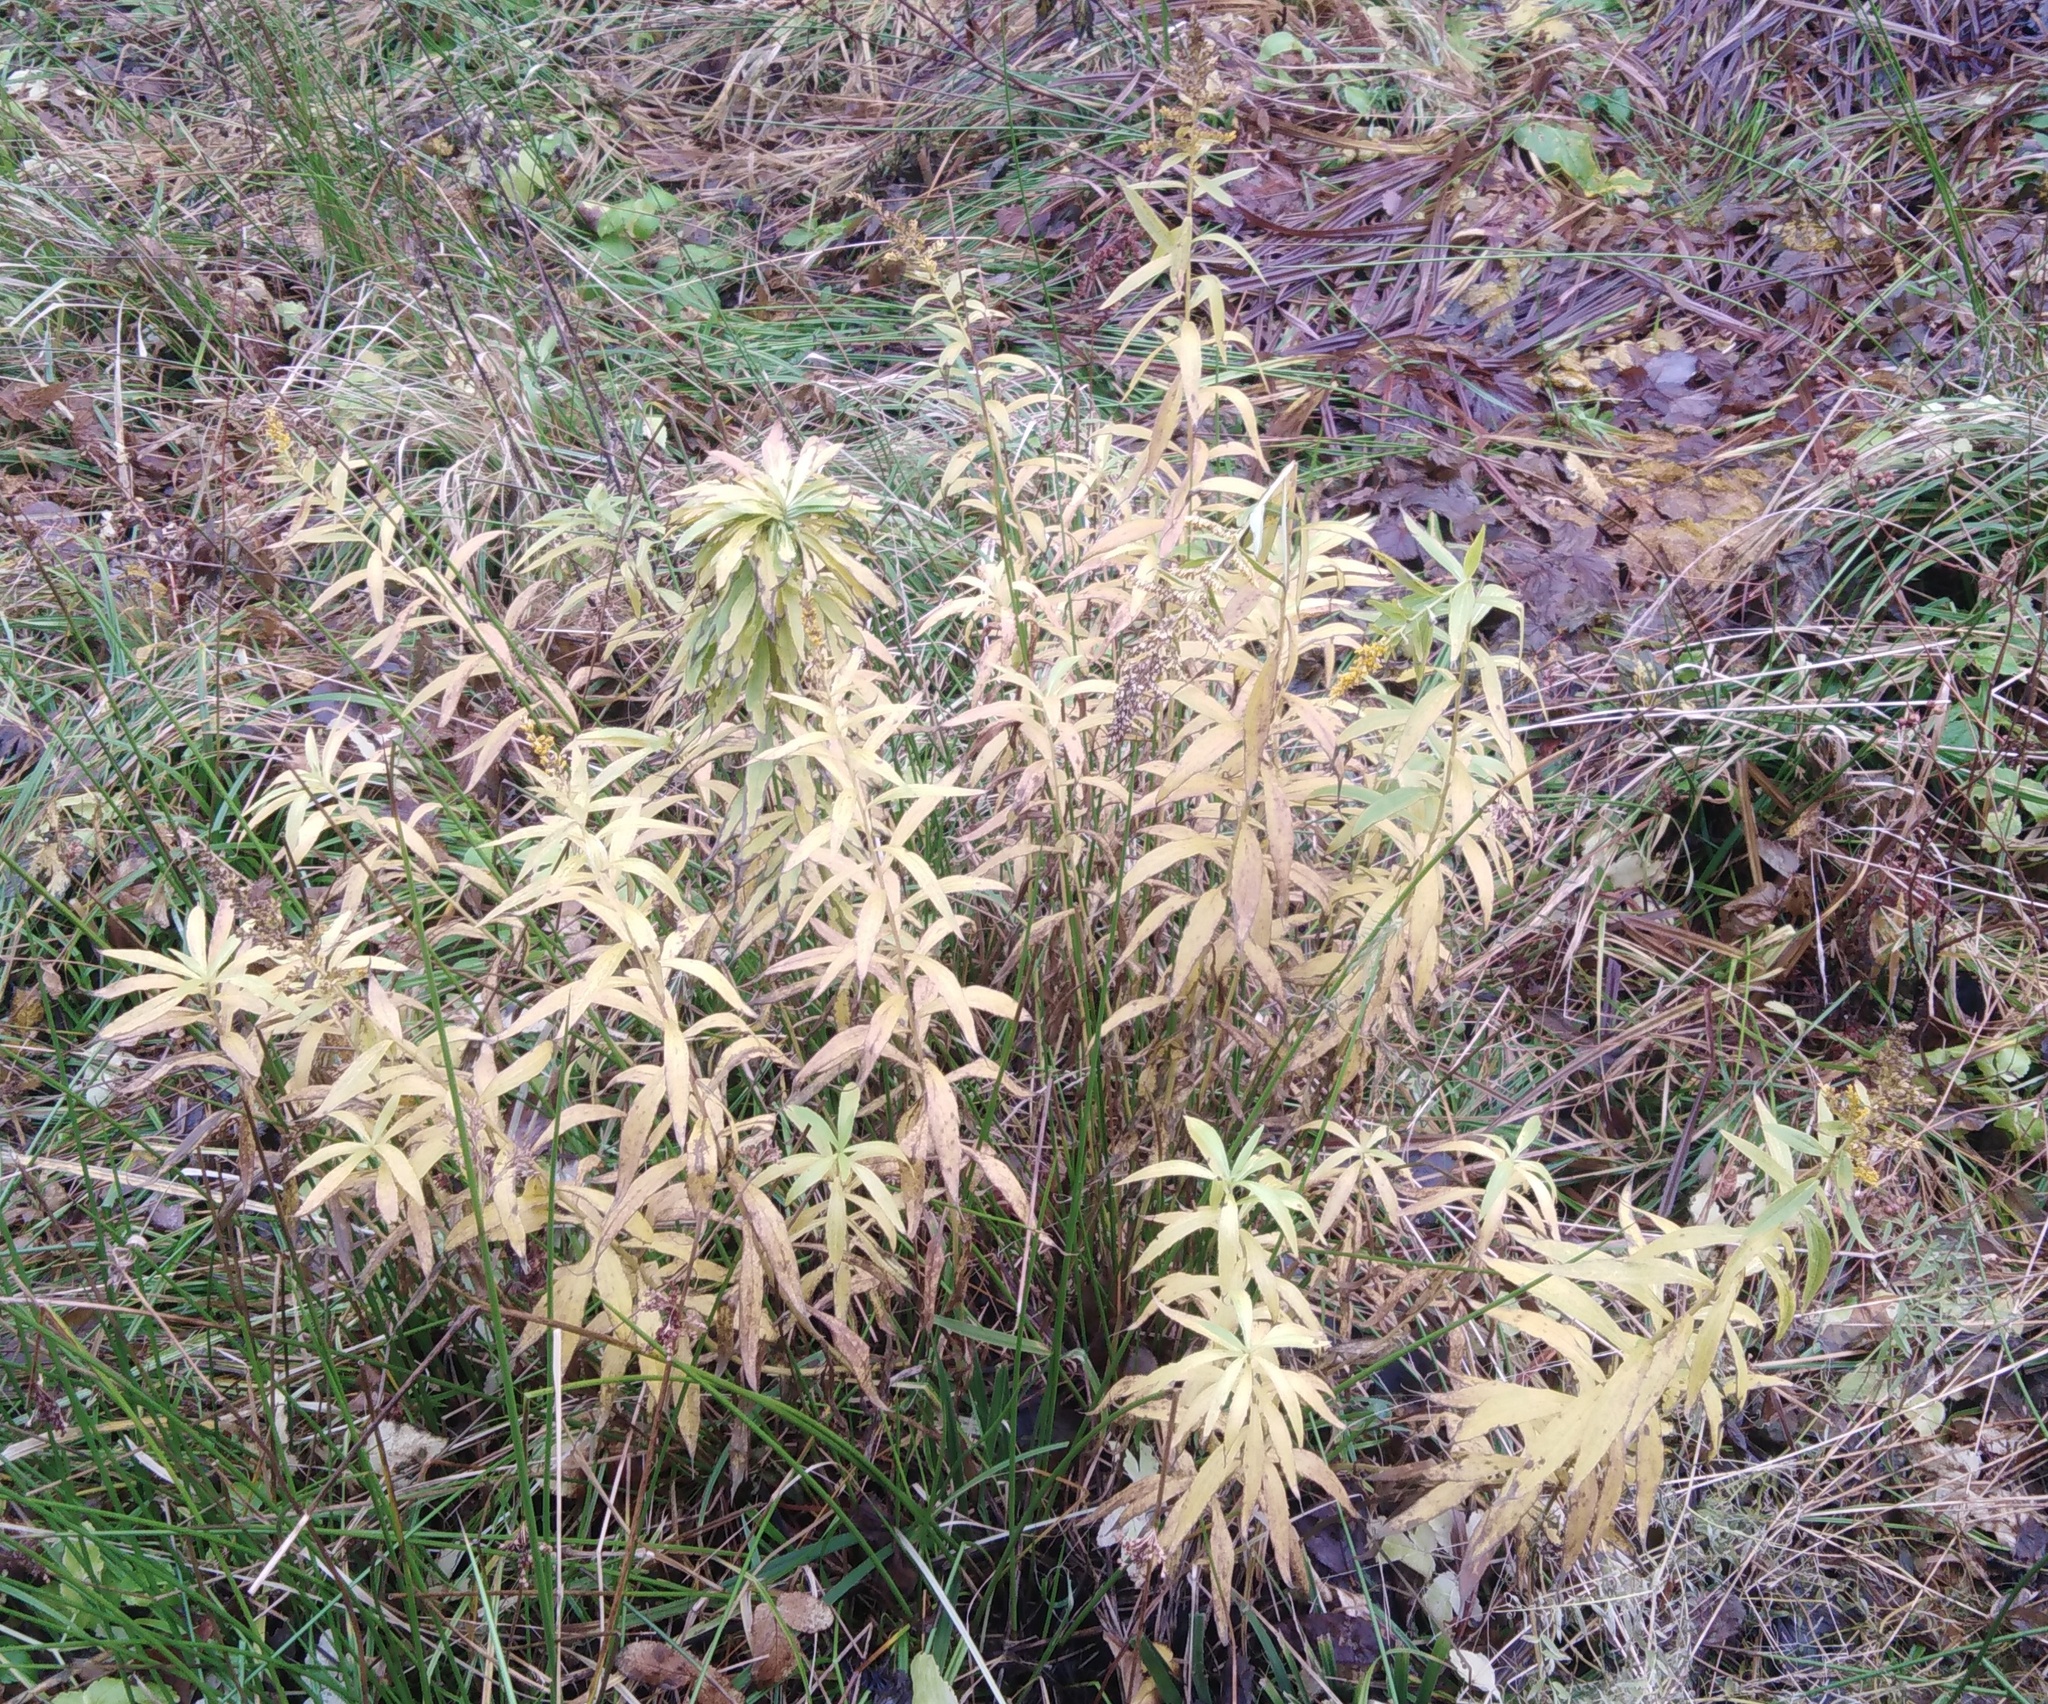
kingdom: Plantae
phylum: Tracheophyta
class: Magnoliopsida
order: Asterales
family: Asteraceae
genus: Solidago
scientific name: Solidago canadensis
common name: Canada goldenrod
